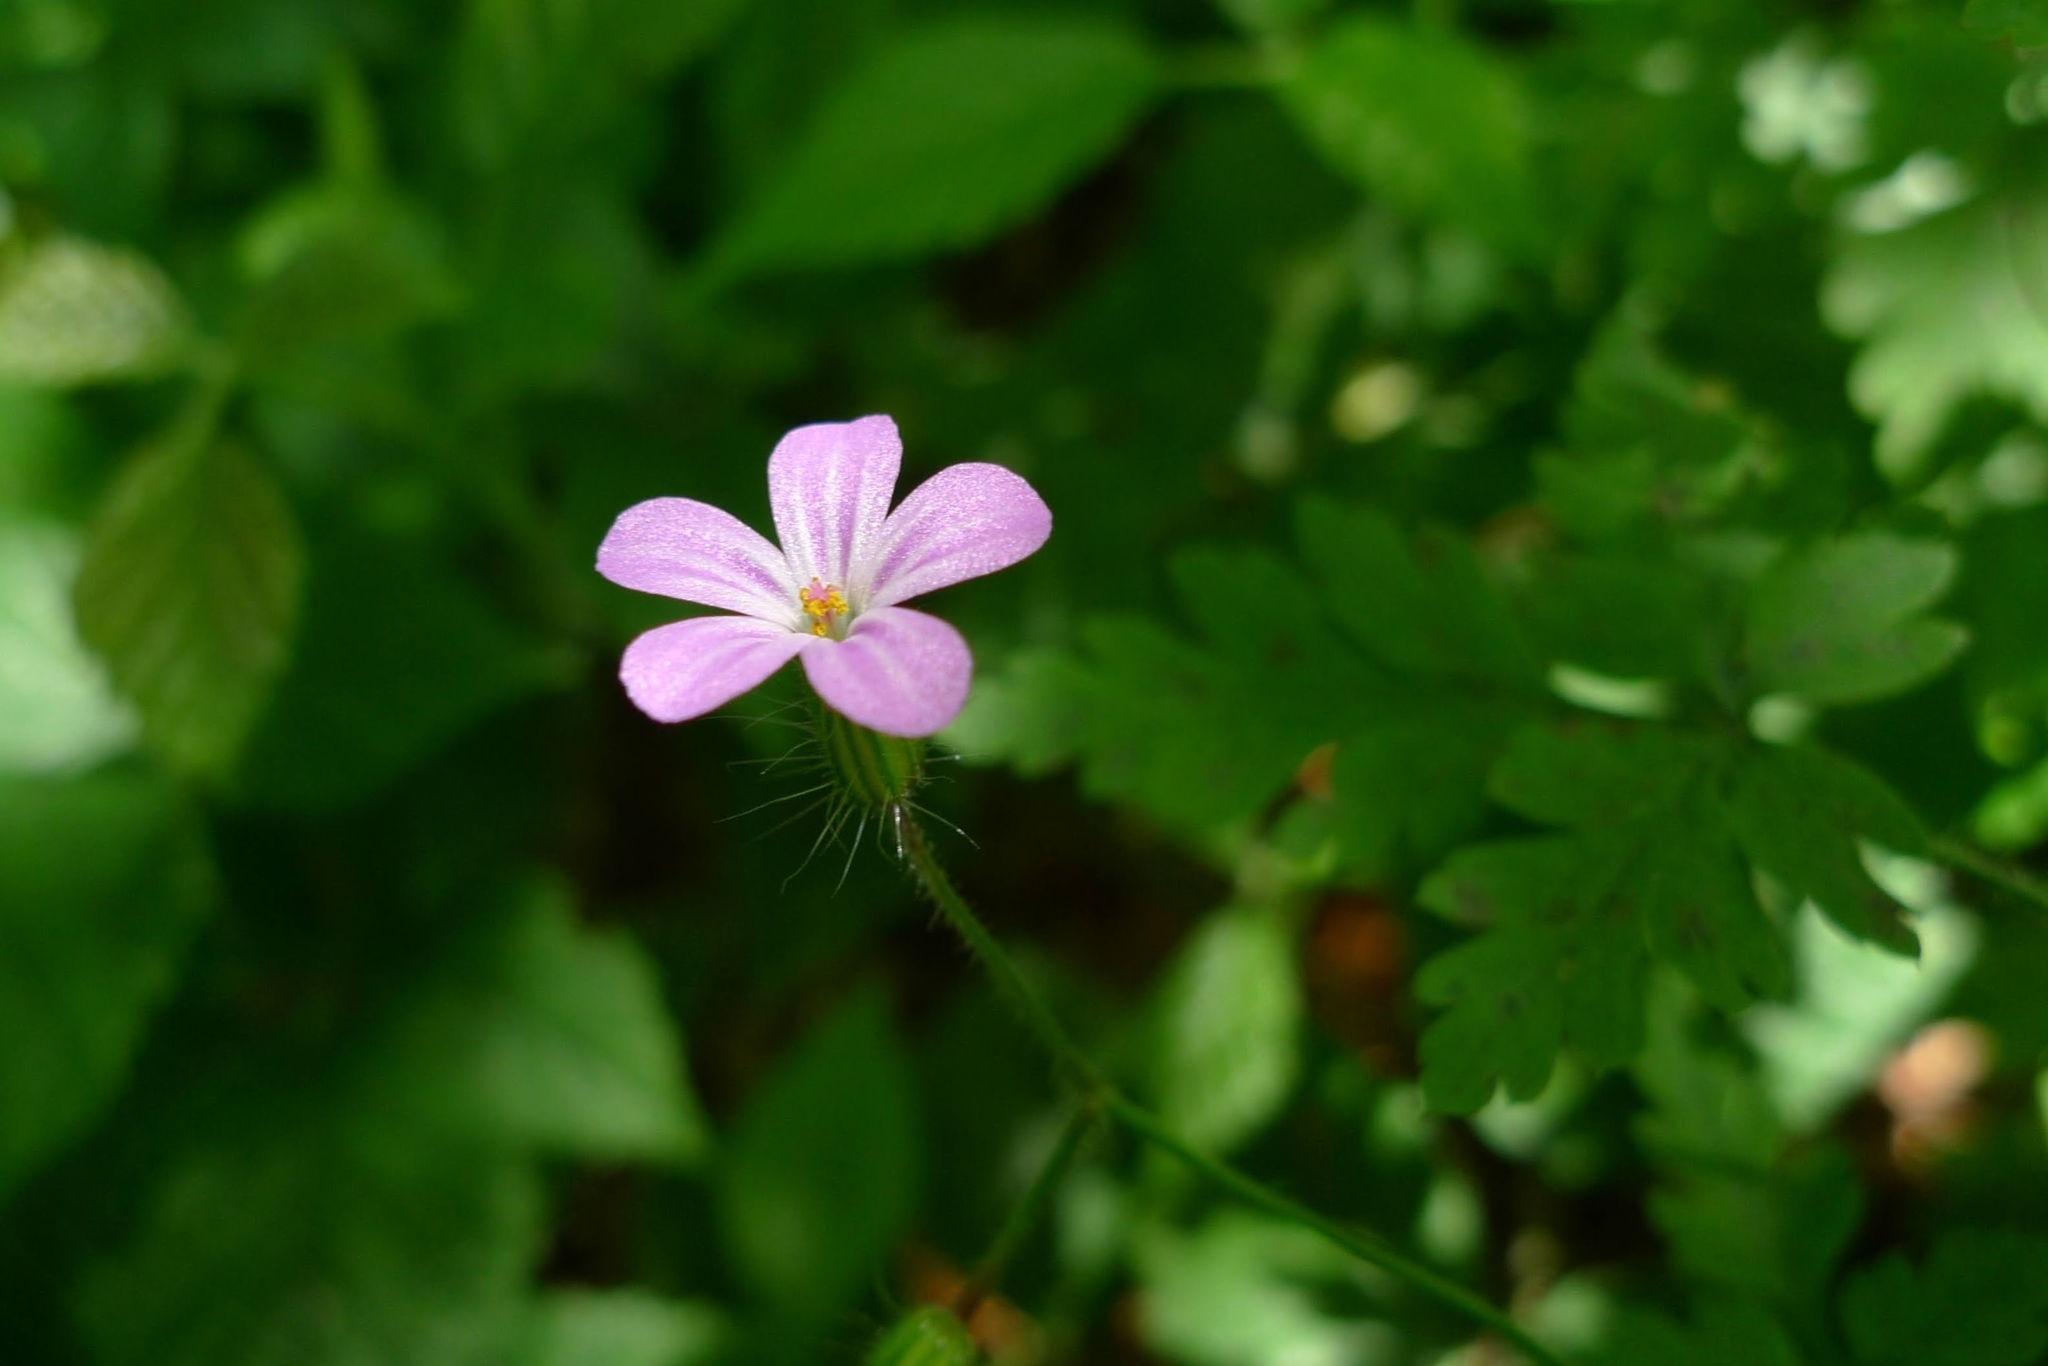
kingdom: Plantae
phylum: Tracheophyta
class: Magnoliopsida
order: Geraniales
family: Geraniaceae
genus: Geranium
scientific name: Geranium robertianum
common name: Herb-robert
